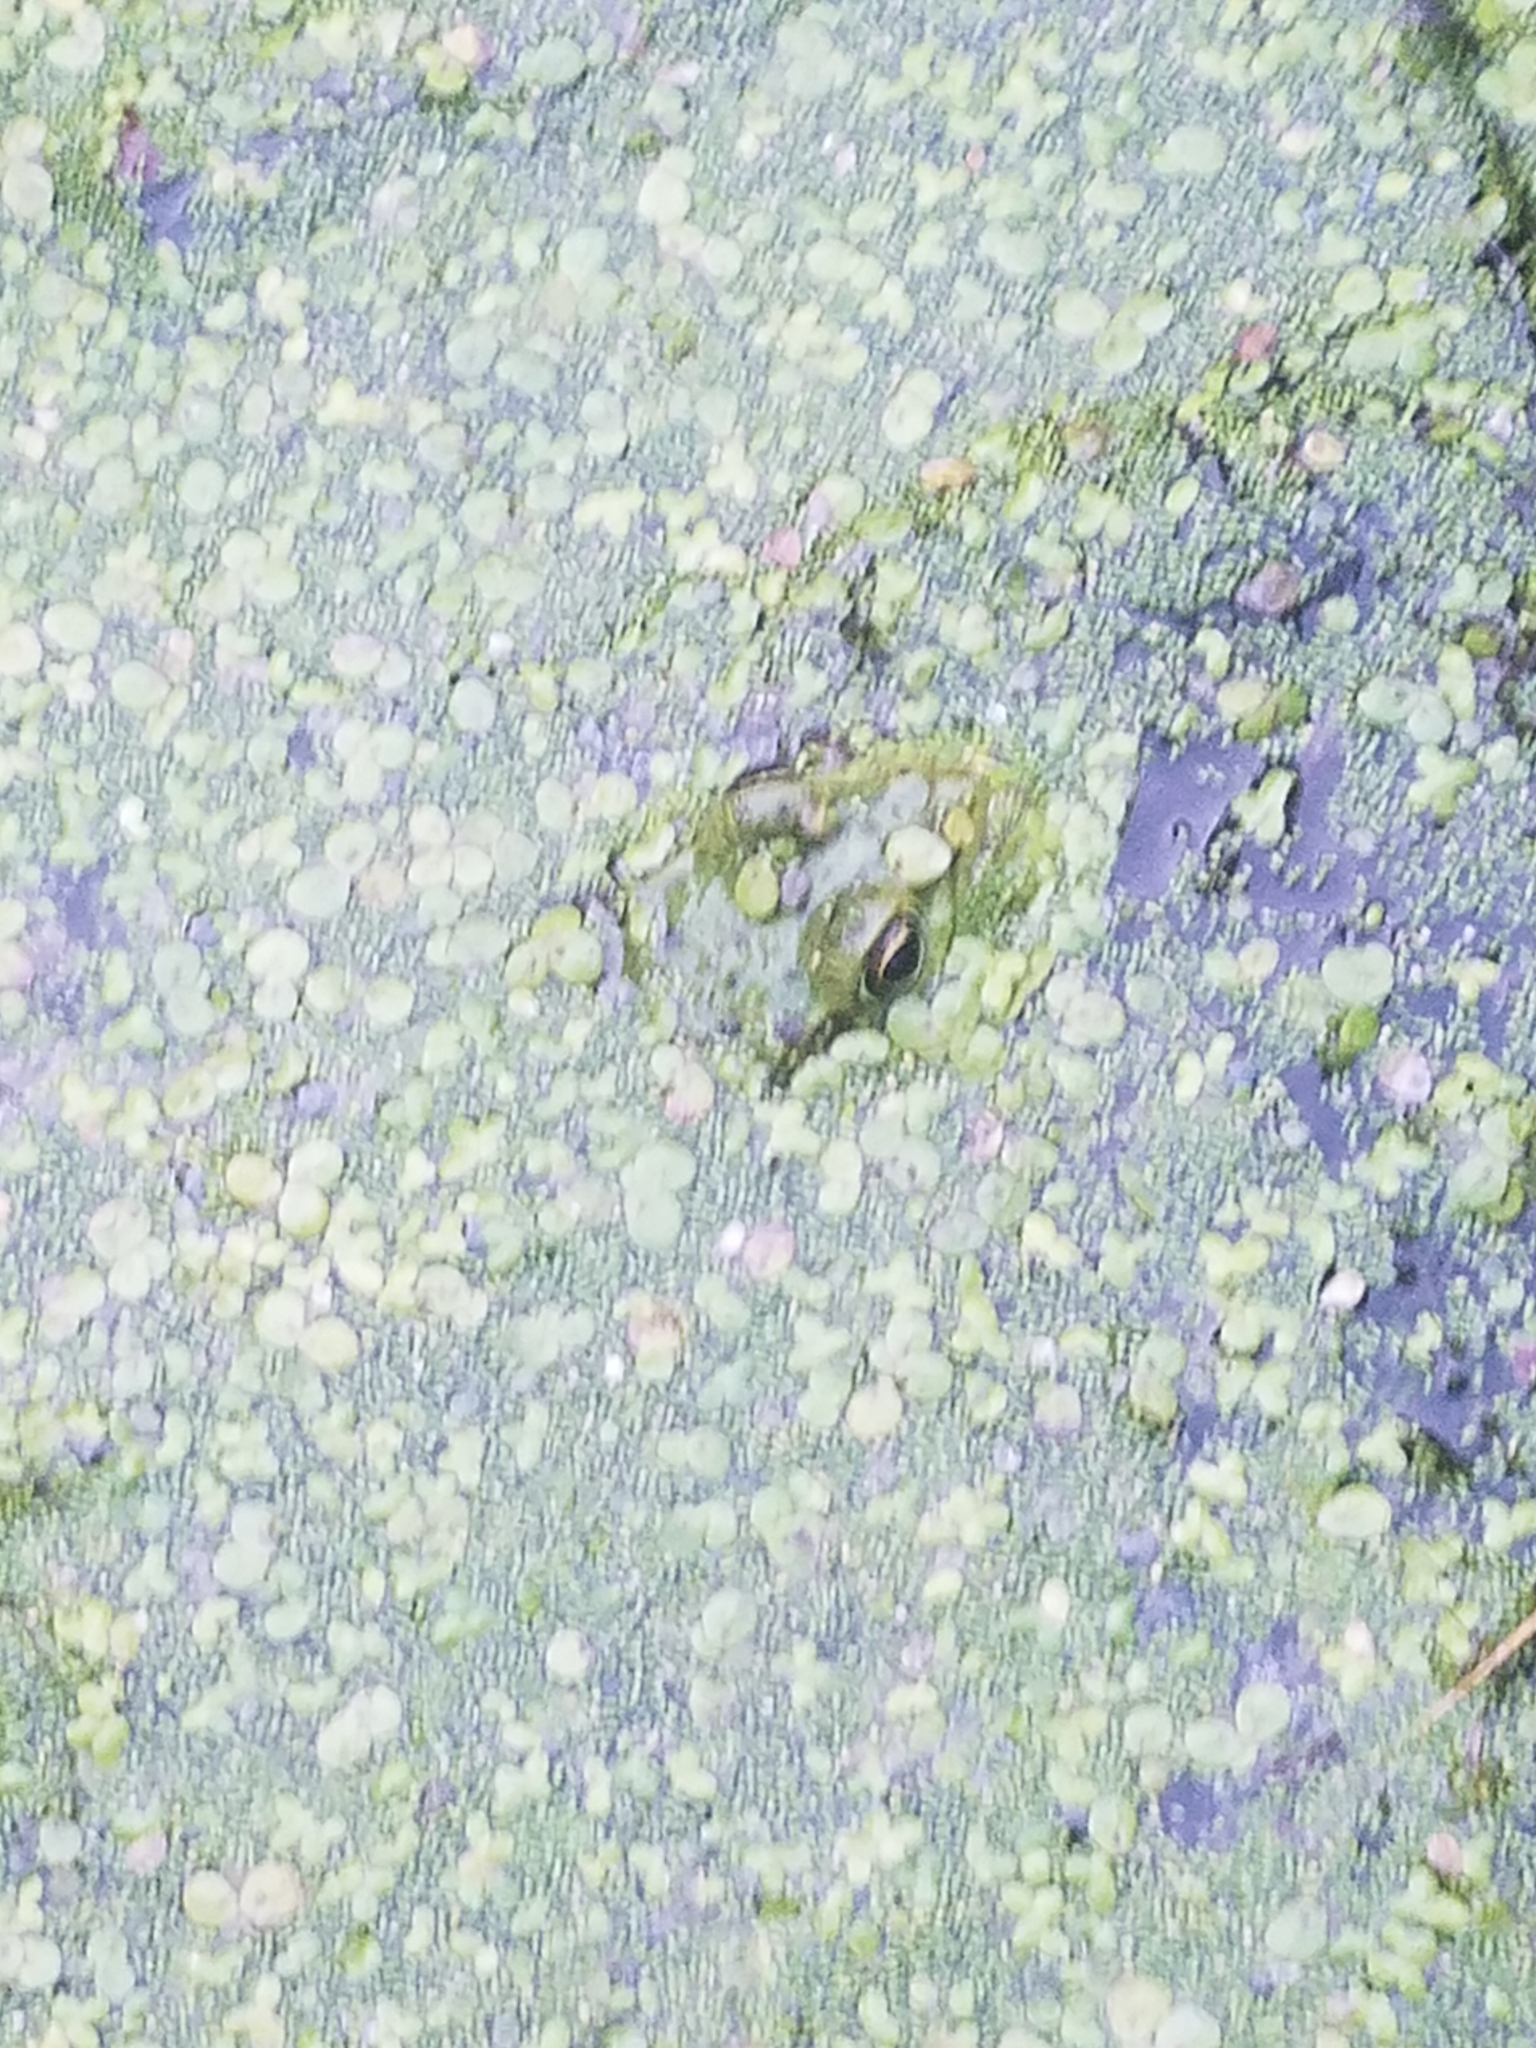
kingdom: Animalia
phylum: Chordata
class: Amphibia
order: Anura
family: Ranidae
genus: Lithobates
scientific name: Lithobates
